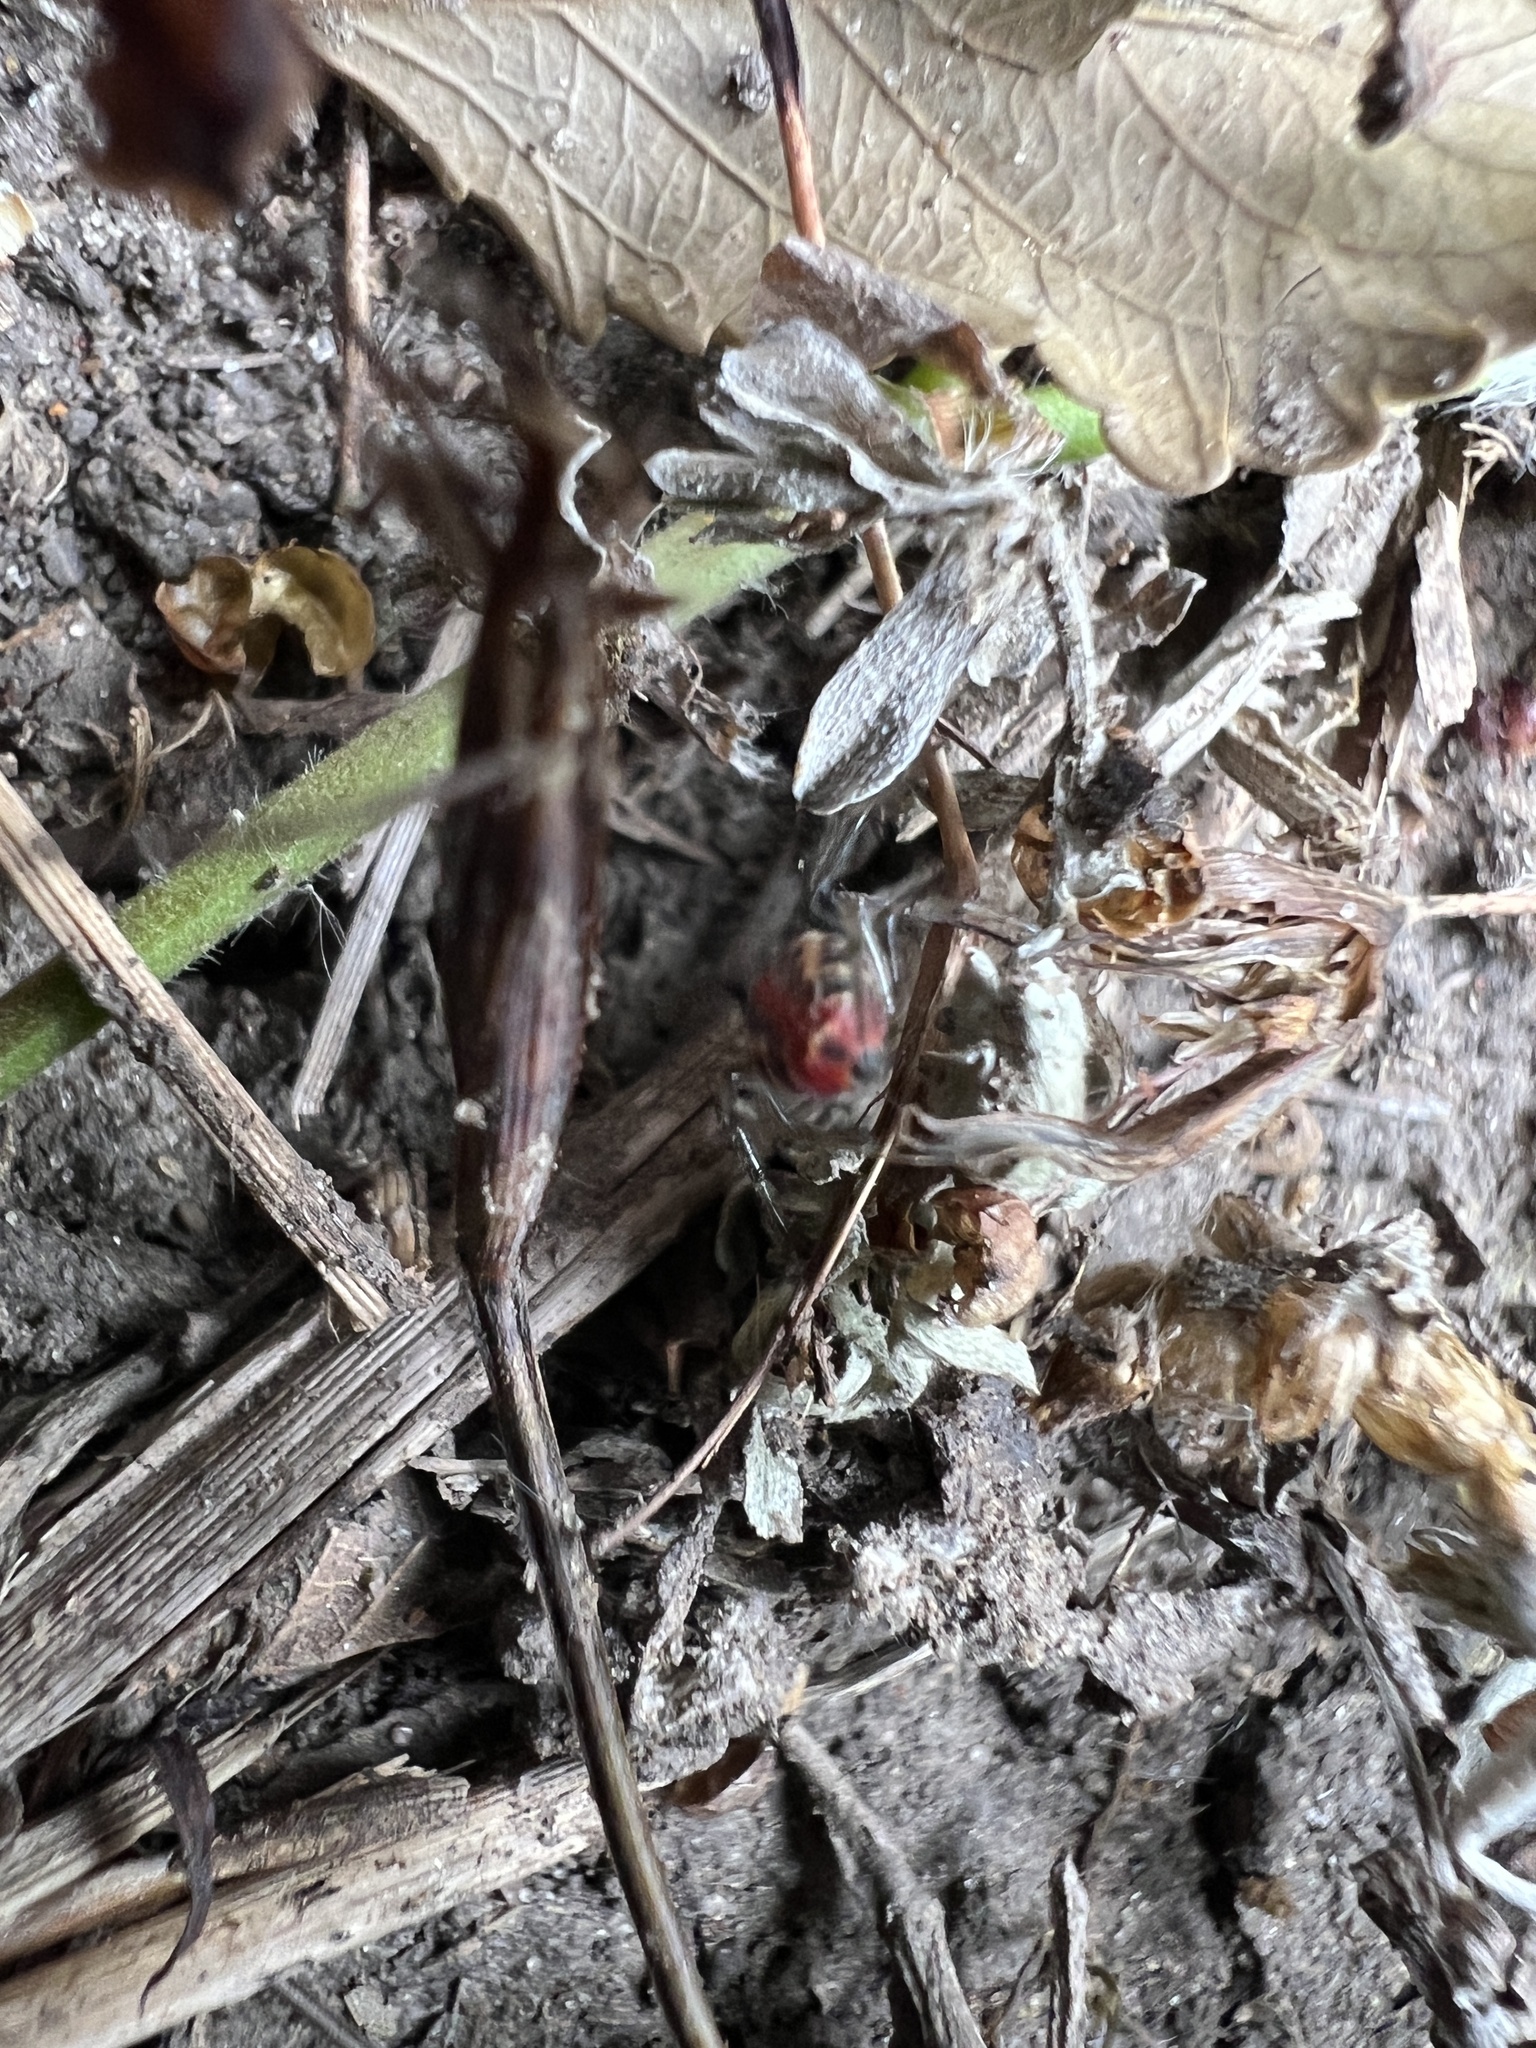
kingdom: Animalia
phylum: Arthropoda
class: Arachnida
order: Araneae
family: Araneidae
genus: Alpaida
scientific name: Alpaida versicolor
